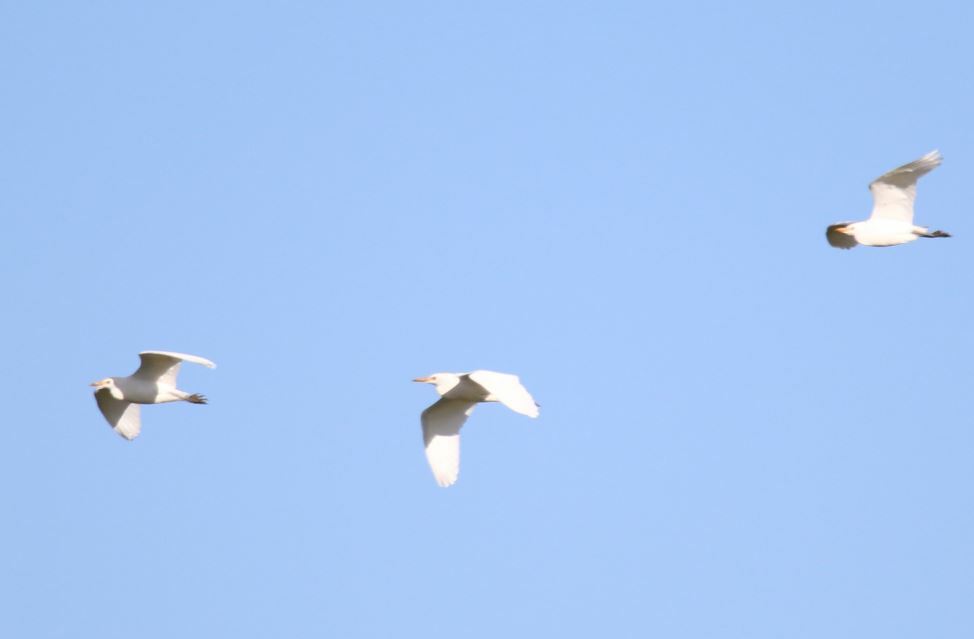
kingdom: Animalia
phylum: Chordata
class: Aves
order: Pelecaniformes
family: Ardeidae
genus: Bubulcus
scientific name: Bubulcus ibis
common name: Cattle egret
